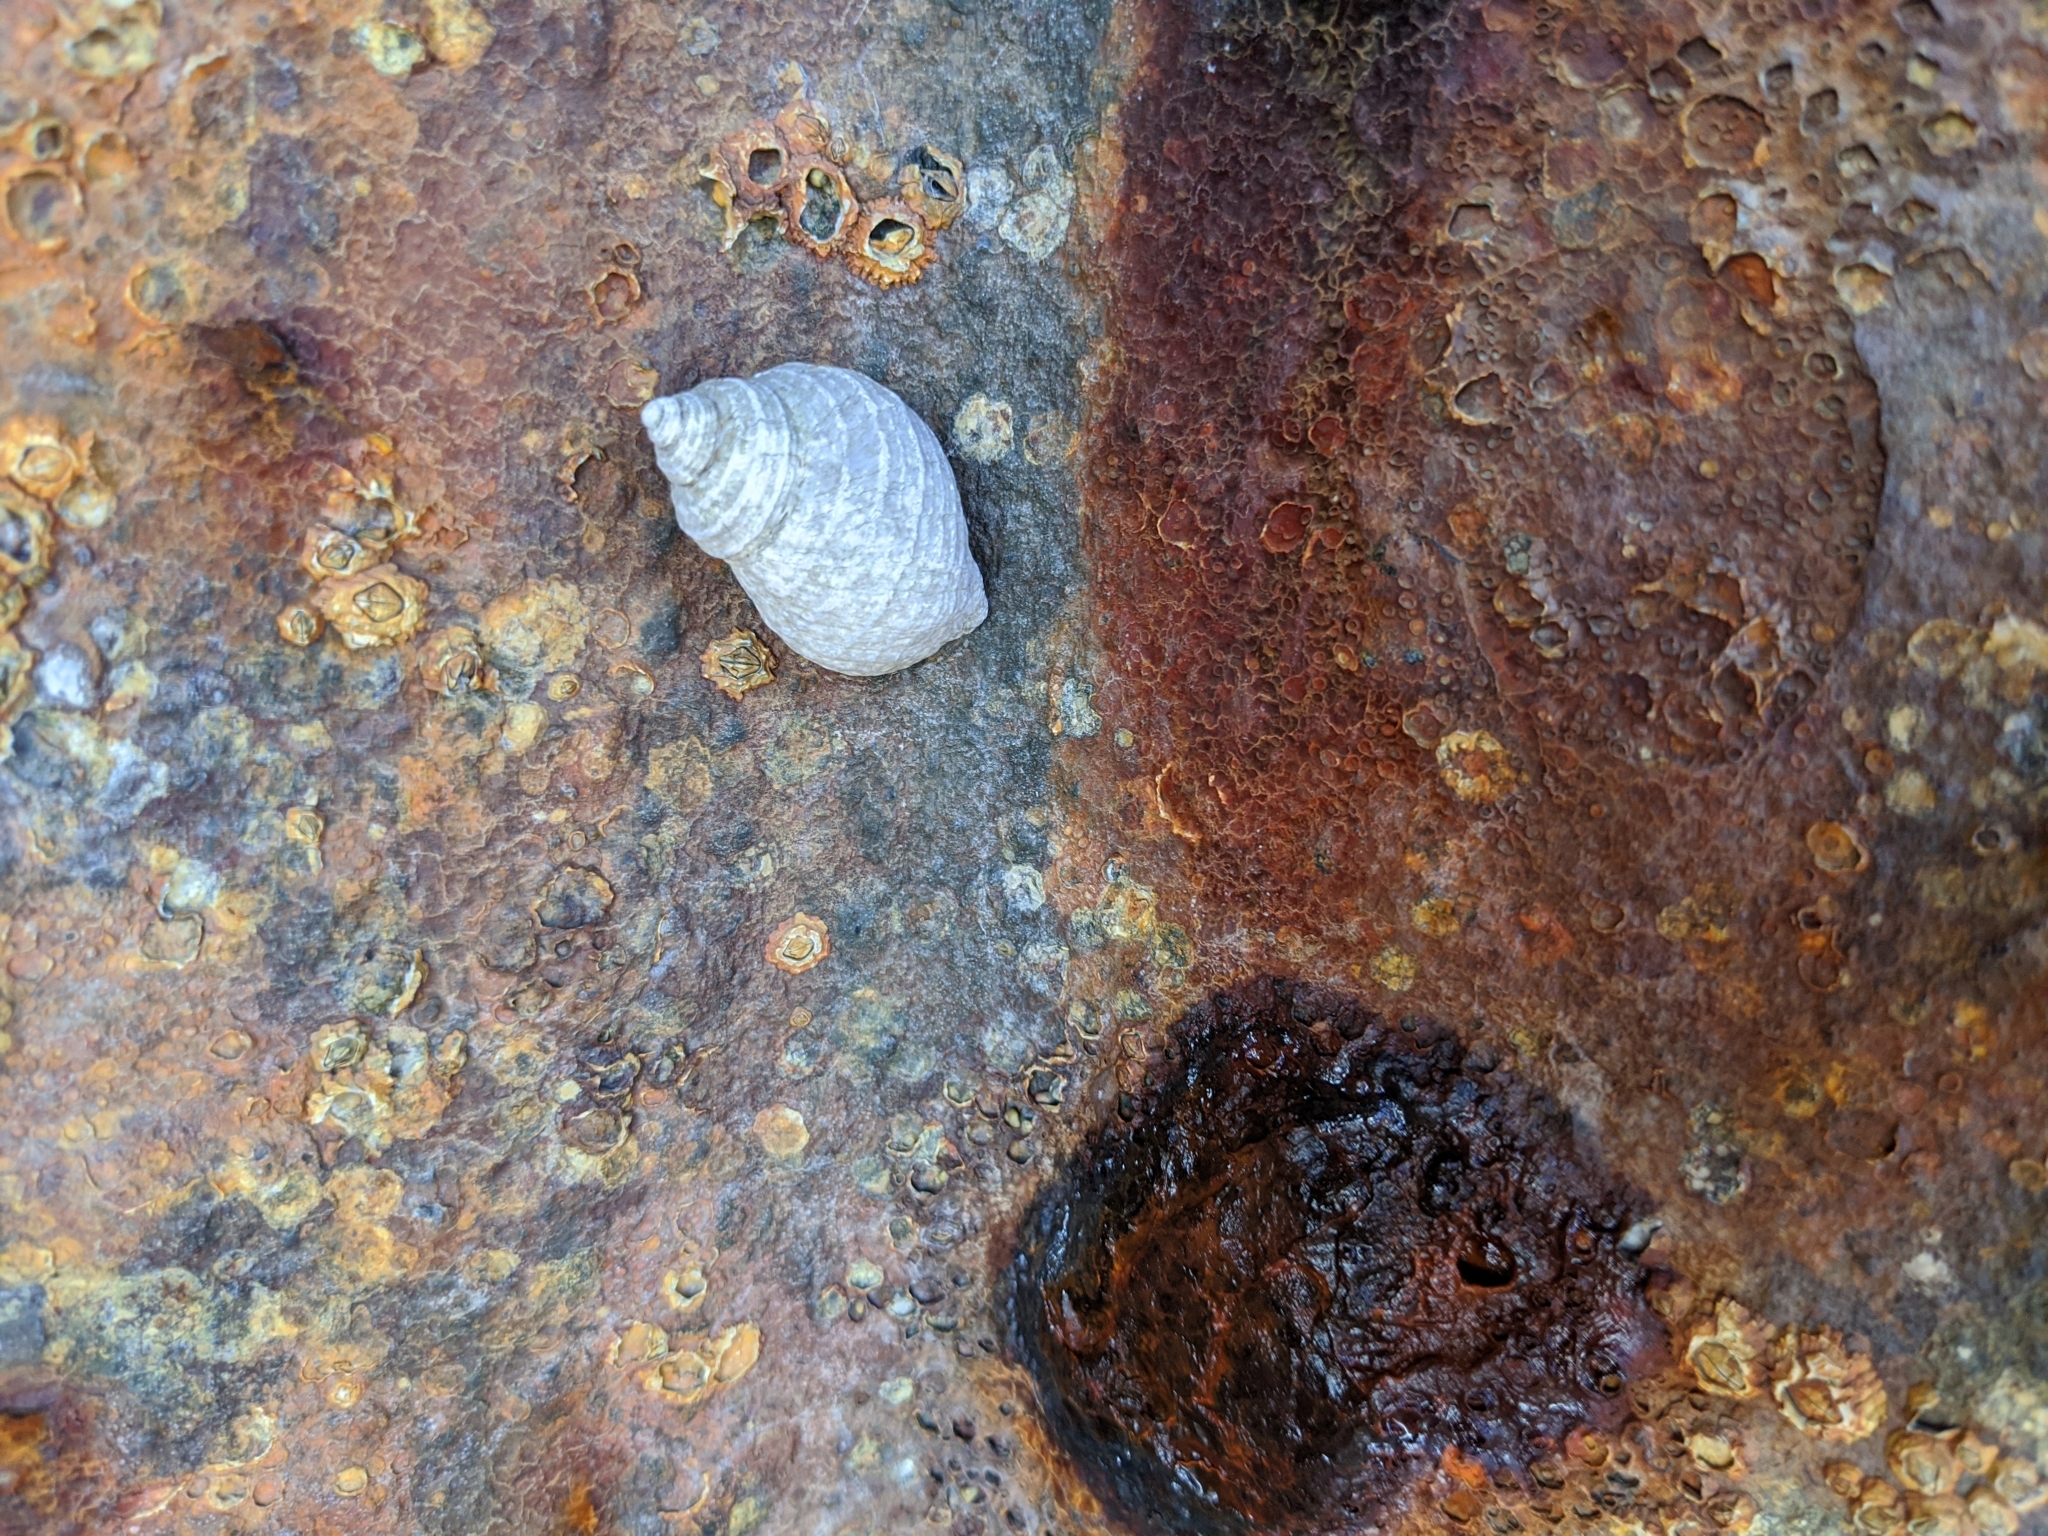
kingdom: Animalia
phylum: Mollusca
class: Gastropoda
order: Neogastropoda
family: Muricidae
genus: Nucella
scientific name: Nucella lapillus
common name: Dog whelk
